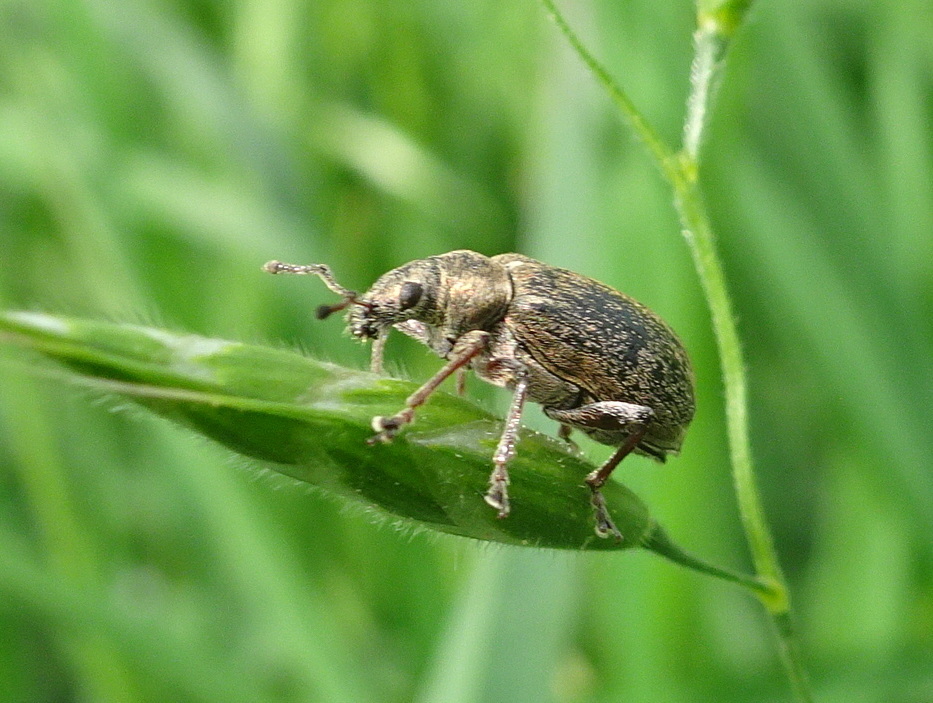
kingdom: Animalia
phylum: Arthropoda
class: Insecta
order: Coleoptera
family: Curculionidae
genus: Phyllobius
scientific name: Phyllobius pyri
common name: Common leaf weevil
